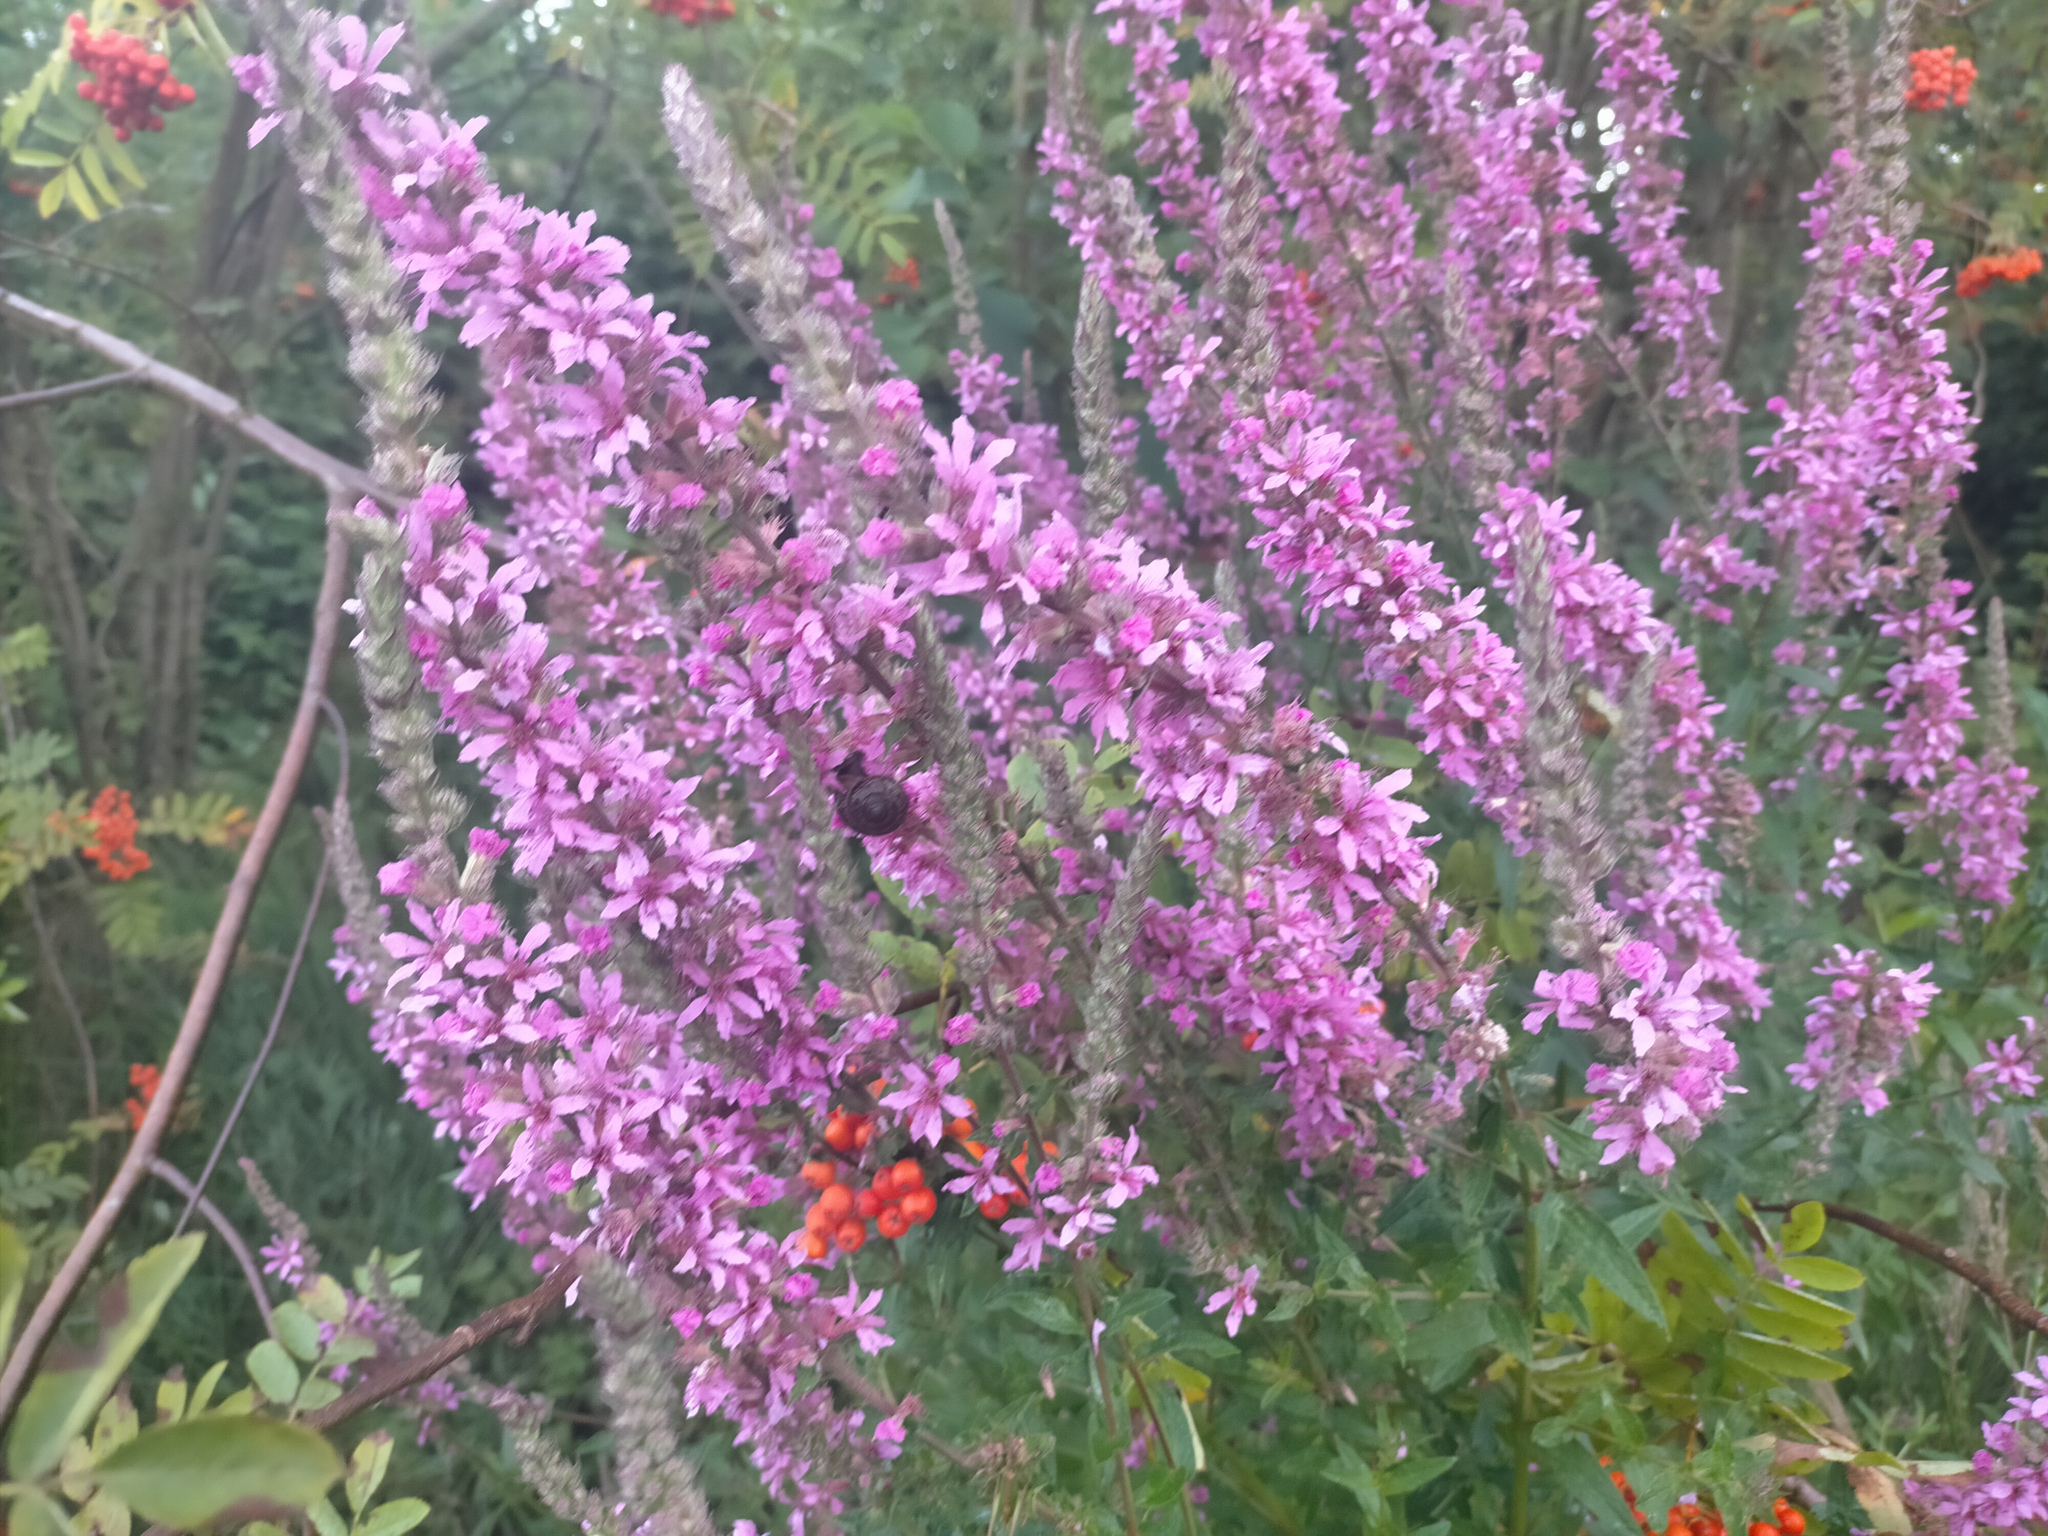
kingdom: Plantae
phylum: Tracheophyta
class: Magnoliopsida
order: Myrtales
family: Lythraceae
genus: Lythrum
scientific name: Lythrum salicaria
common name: Purple loosestrife
